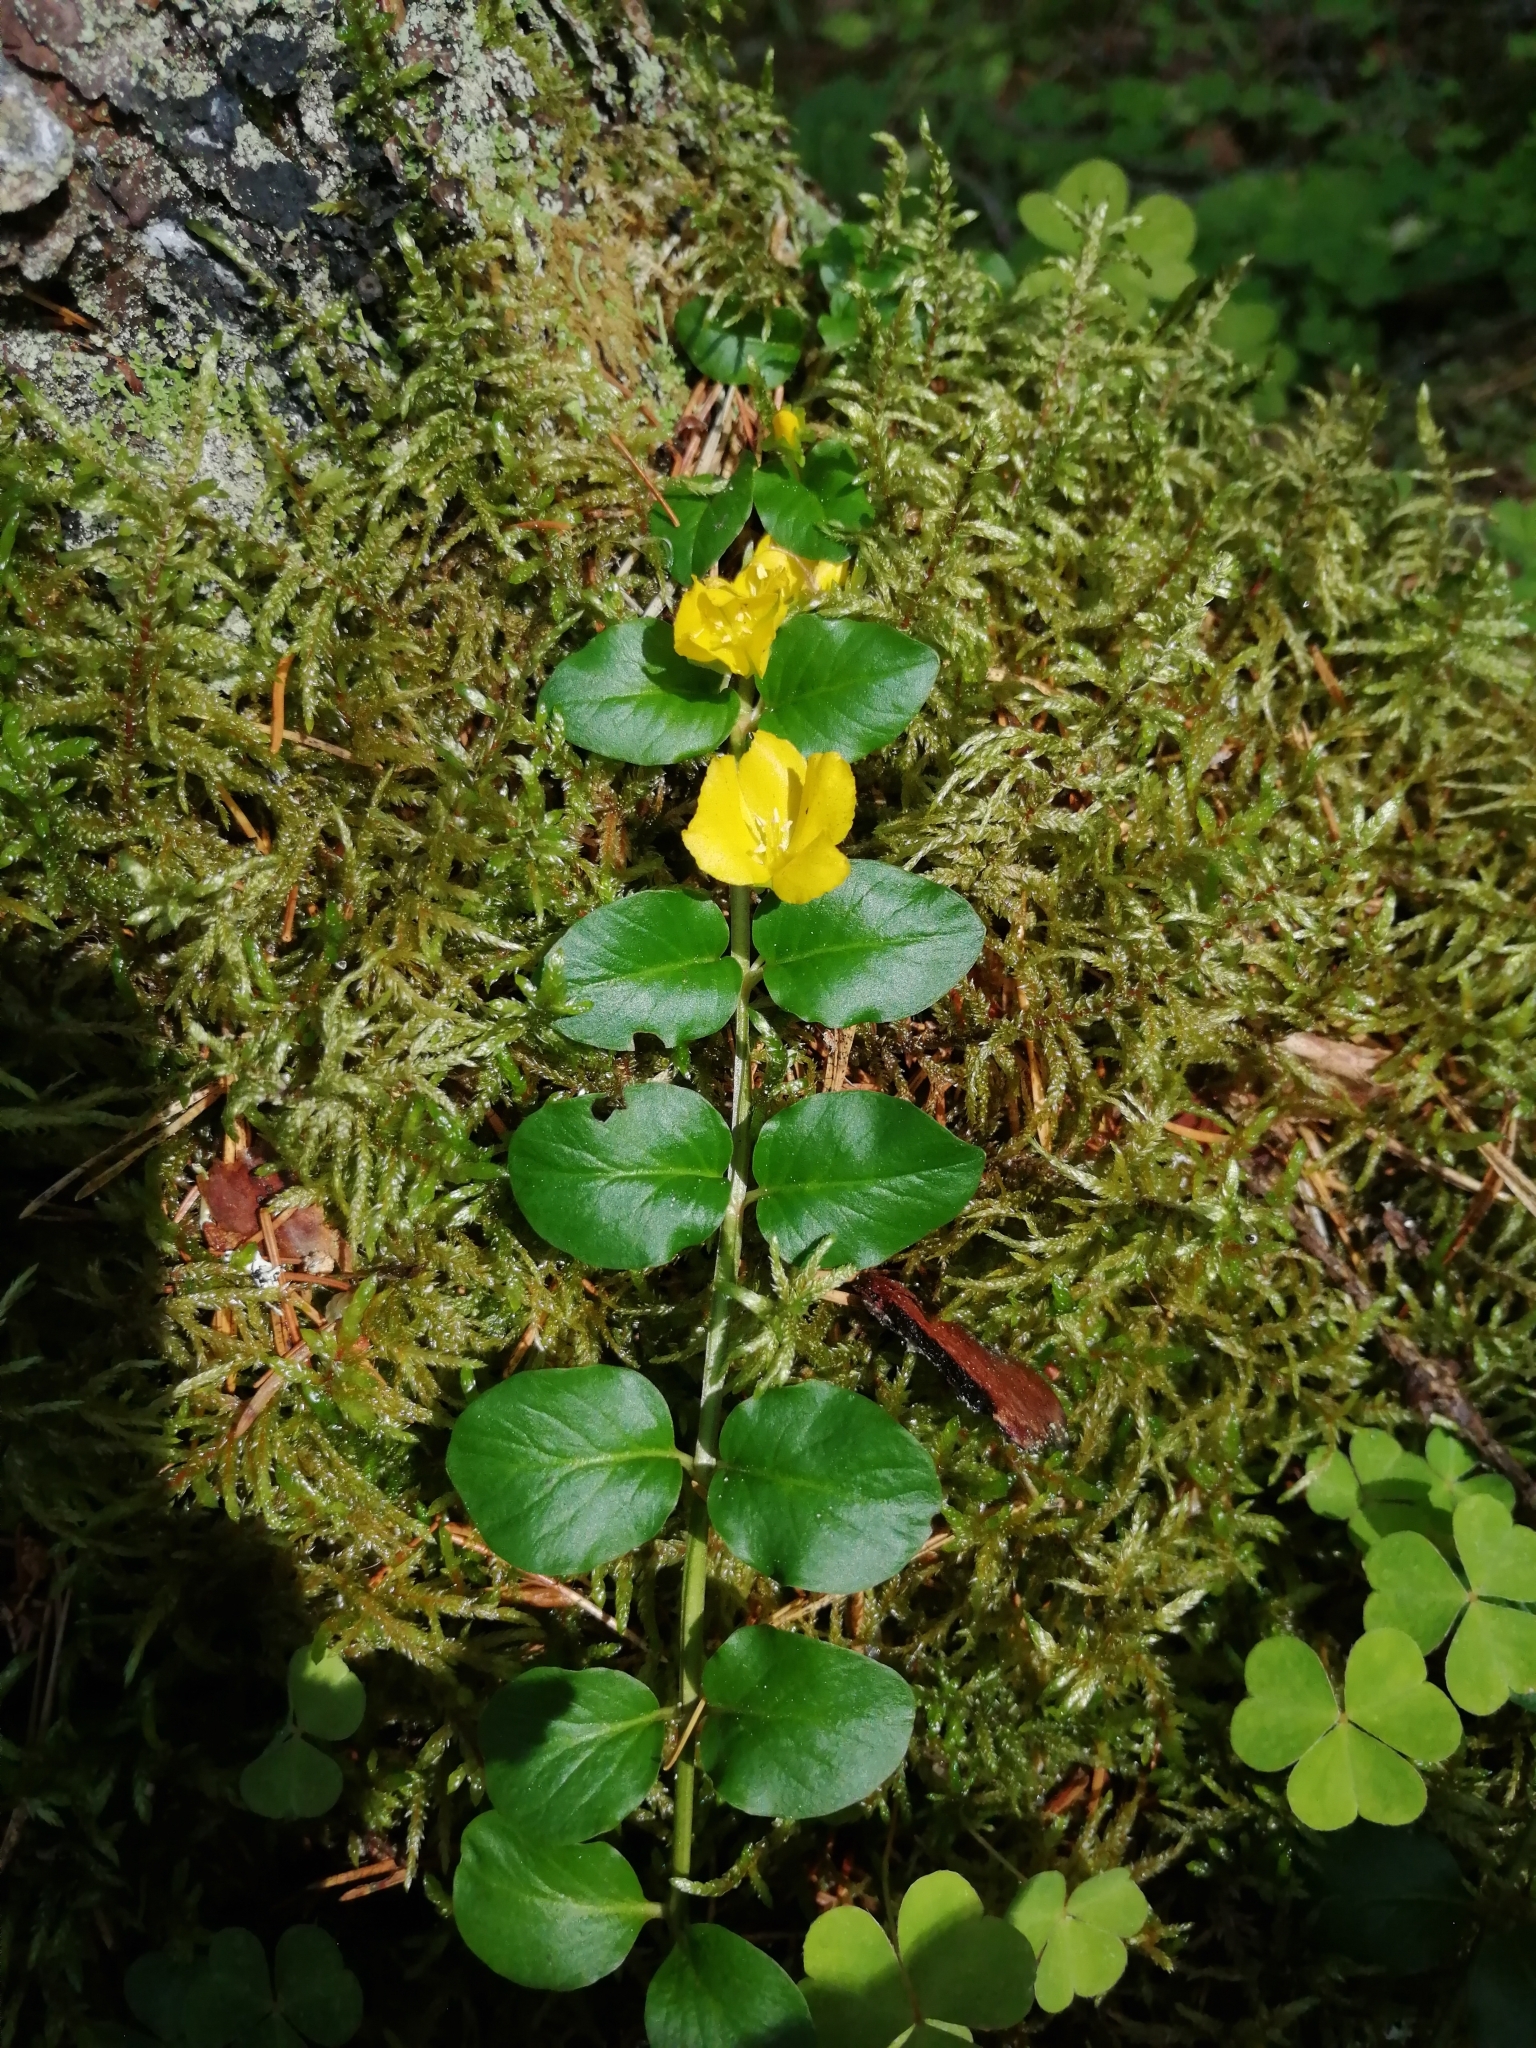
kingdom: Plantae
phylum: Tracheophyta
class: Magnoliopsida
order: Ericales
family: Primulaceae
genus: Lysimachia
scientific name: Lysimachia nummularia
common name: Moneywort
